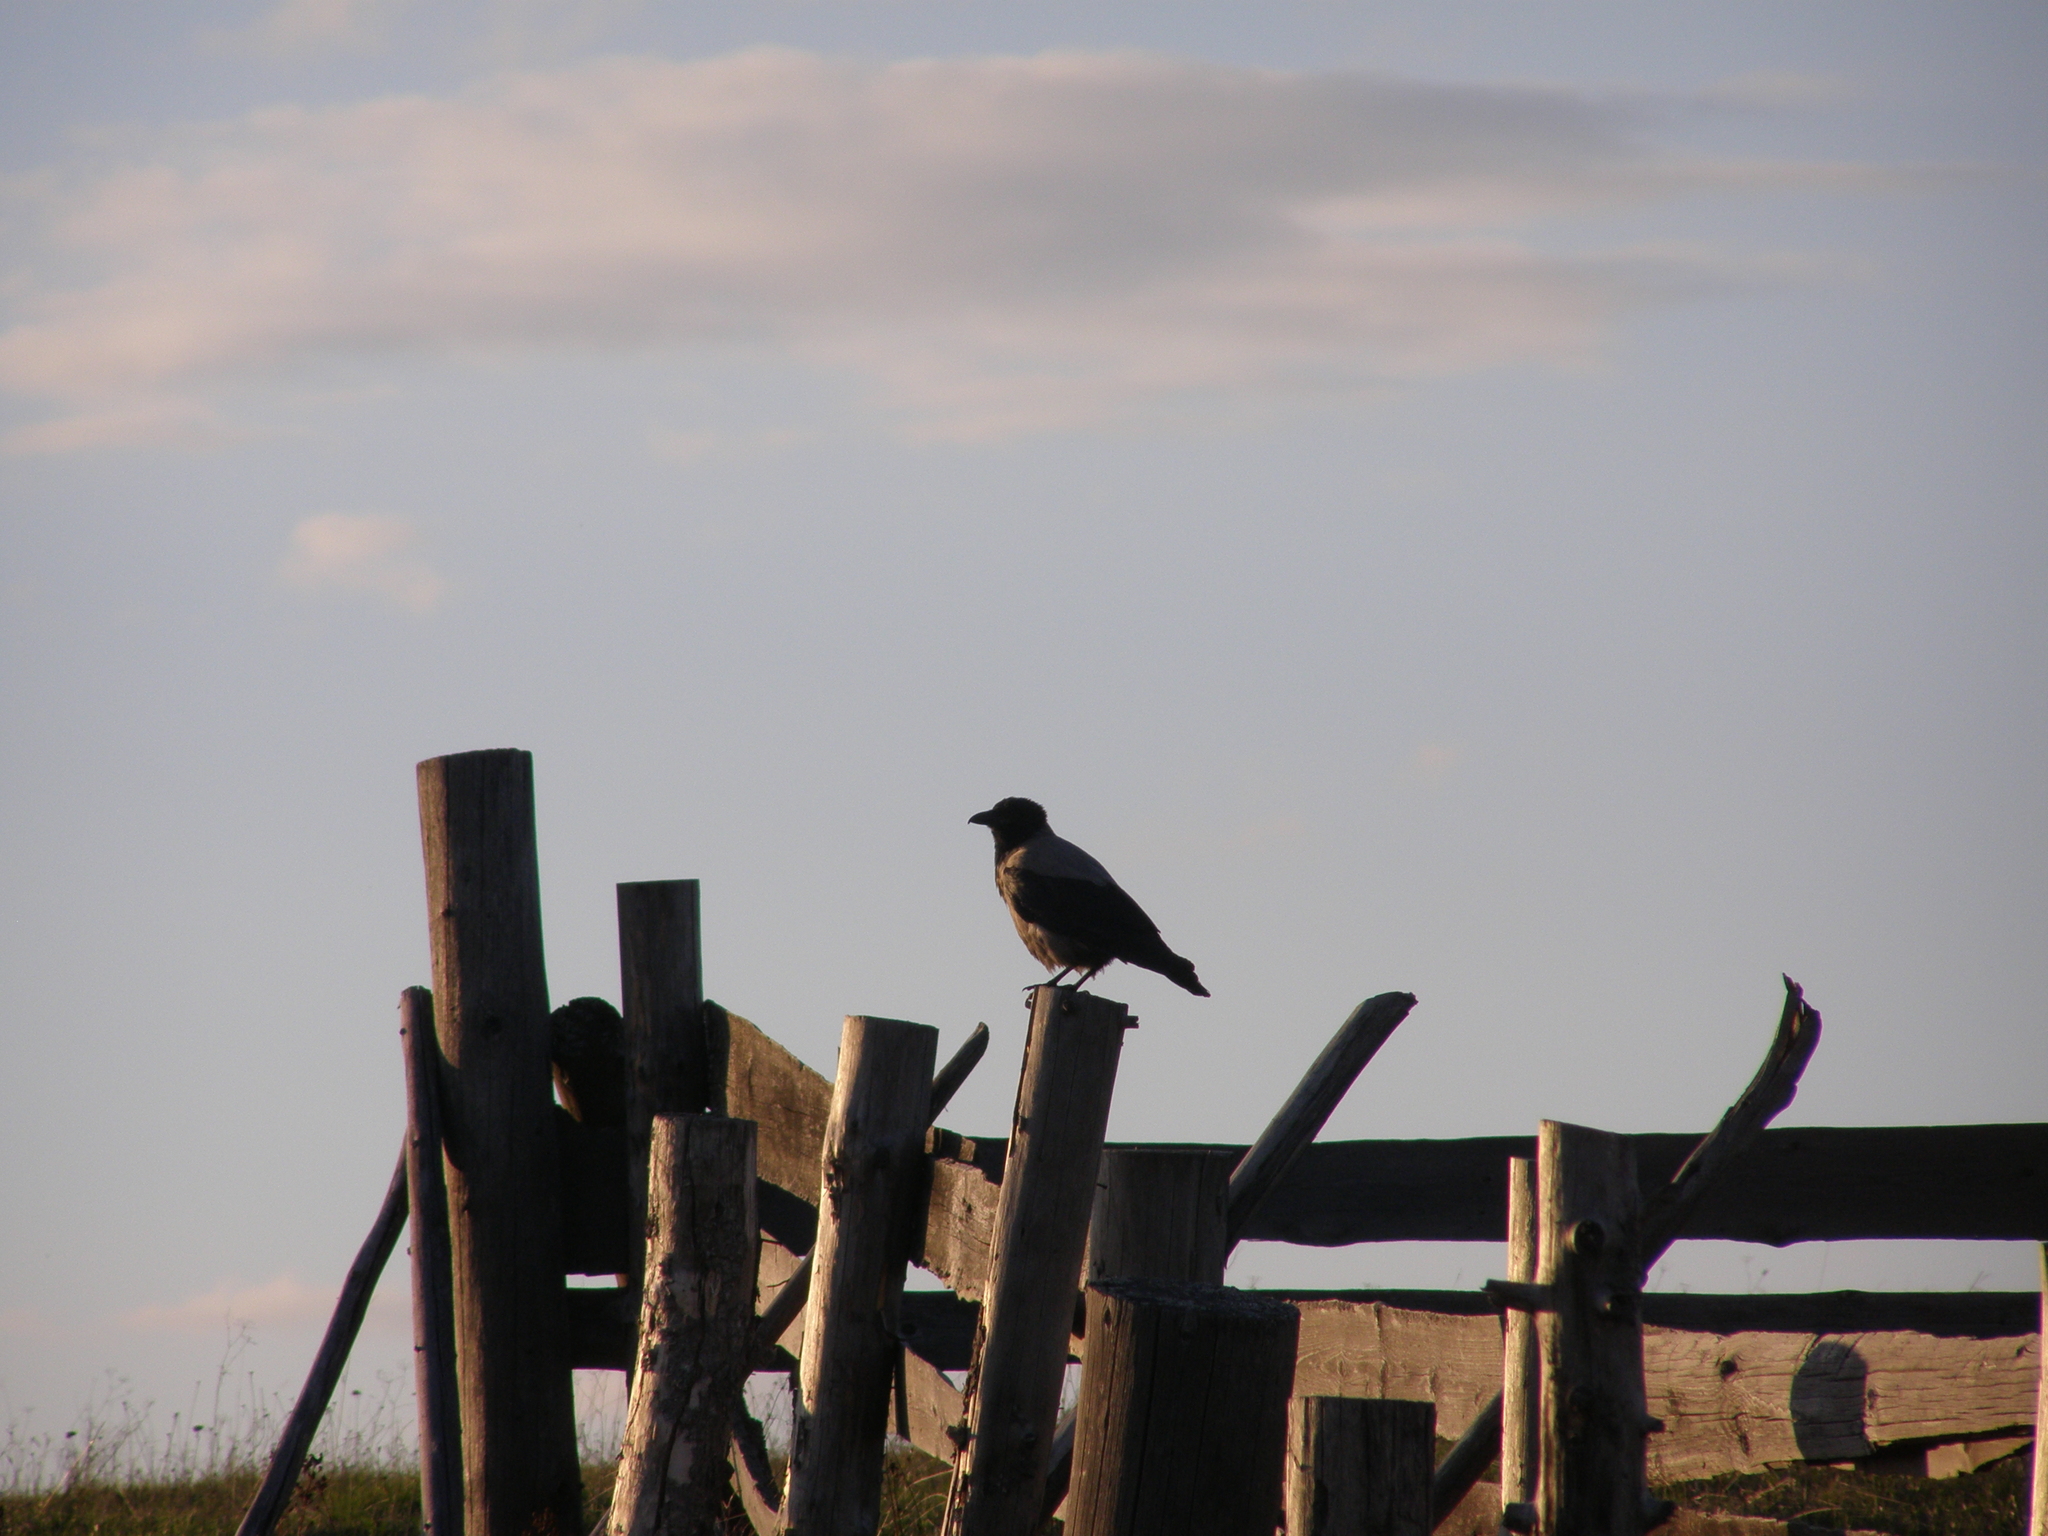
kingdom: Animalia
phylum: Chordata
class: Aves
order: Passeriformes
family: Corvidae
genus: Corvus
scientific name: Corvus cornix
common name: Hooded crow
